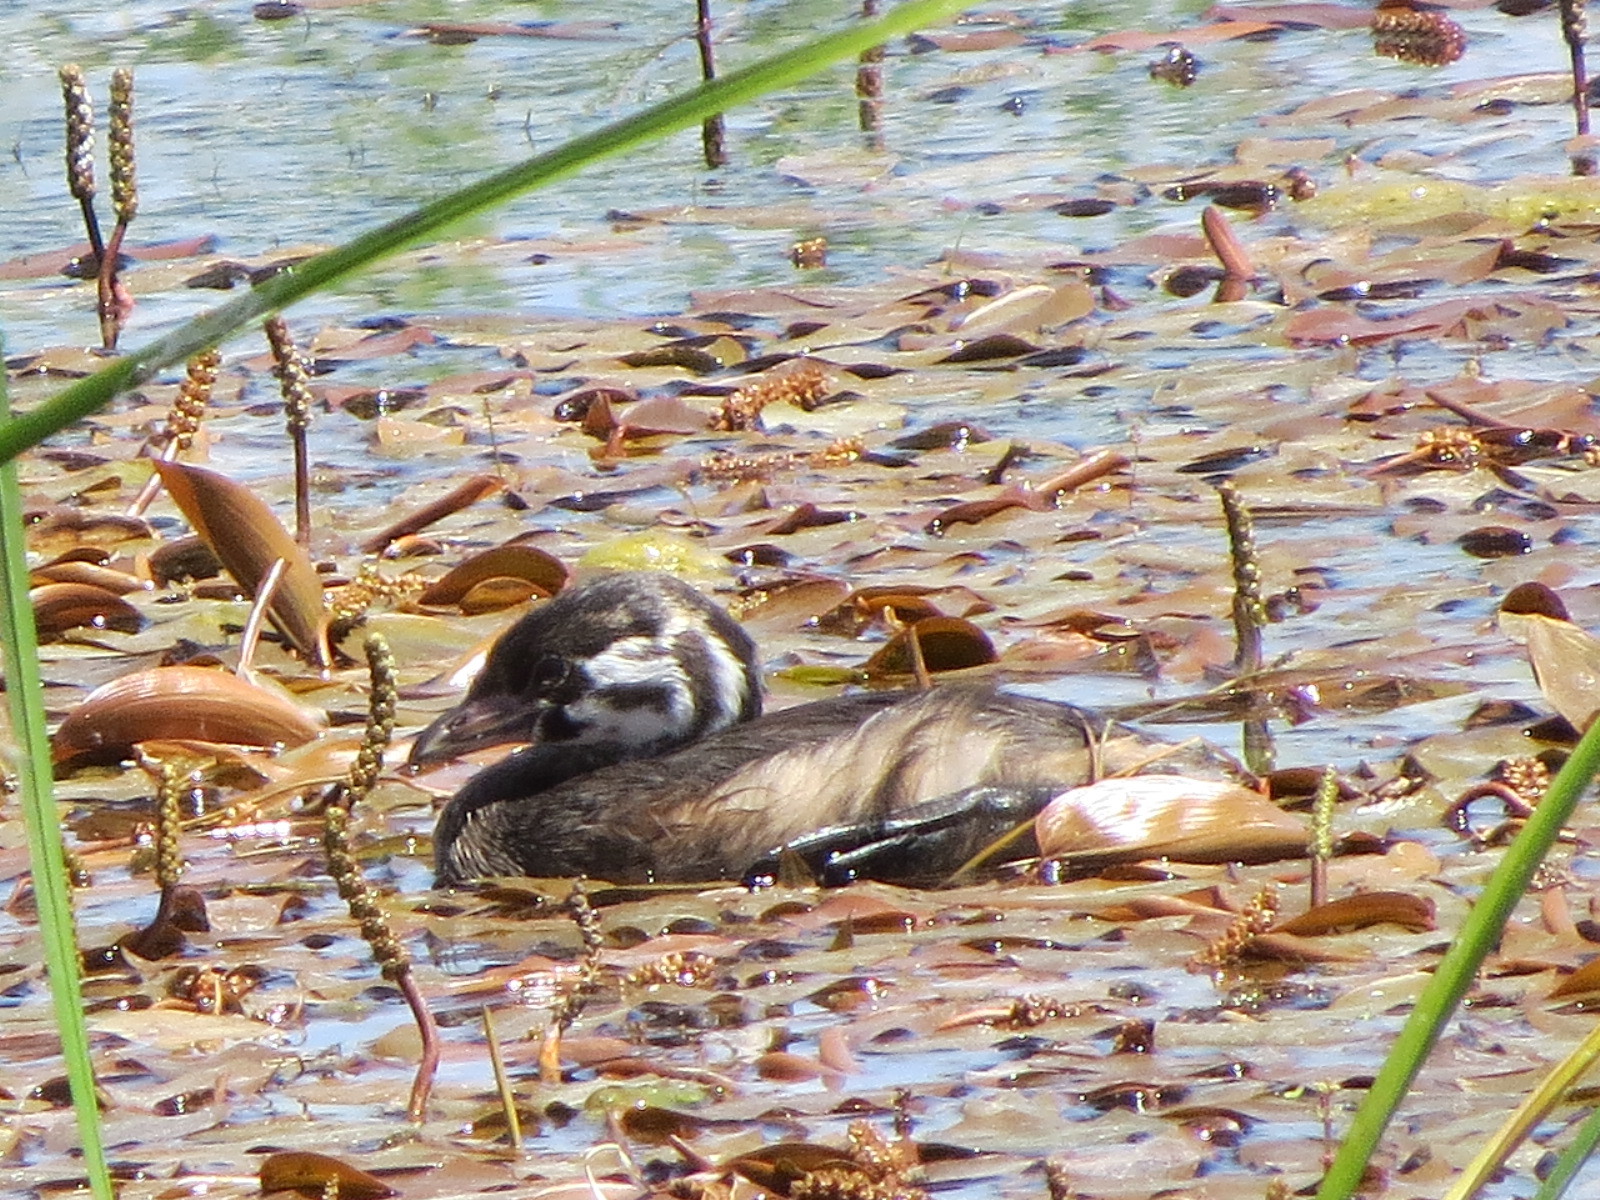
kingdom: Animalia
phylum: Chordata
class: Aves
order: Podicipediformes
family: Podicipedidae
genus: Podilymbus
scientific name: Podilymbus podiceps
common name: Pied-billed grebe
